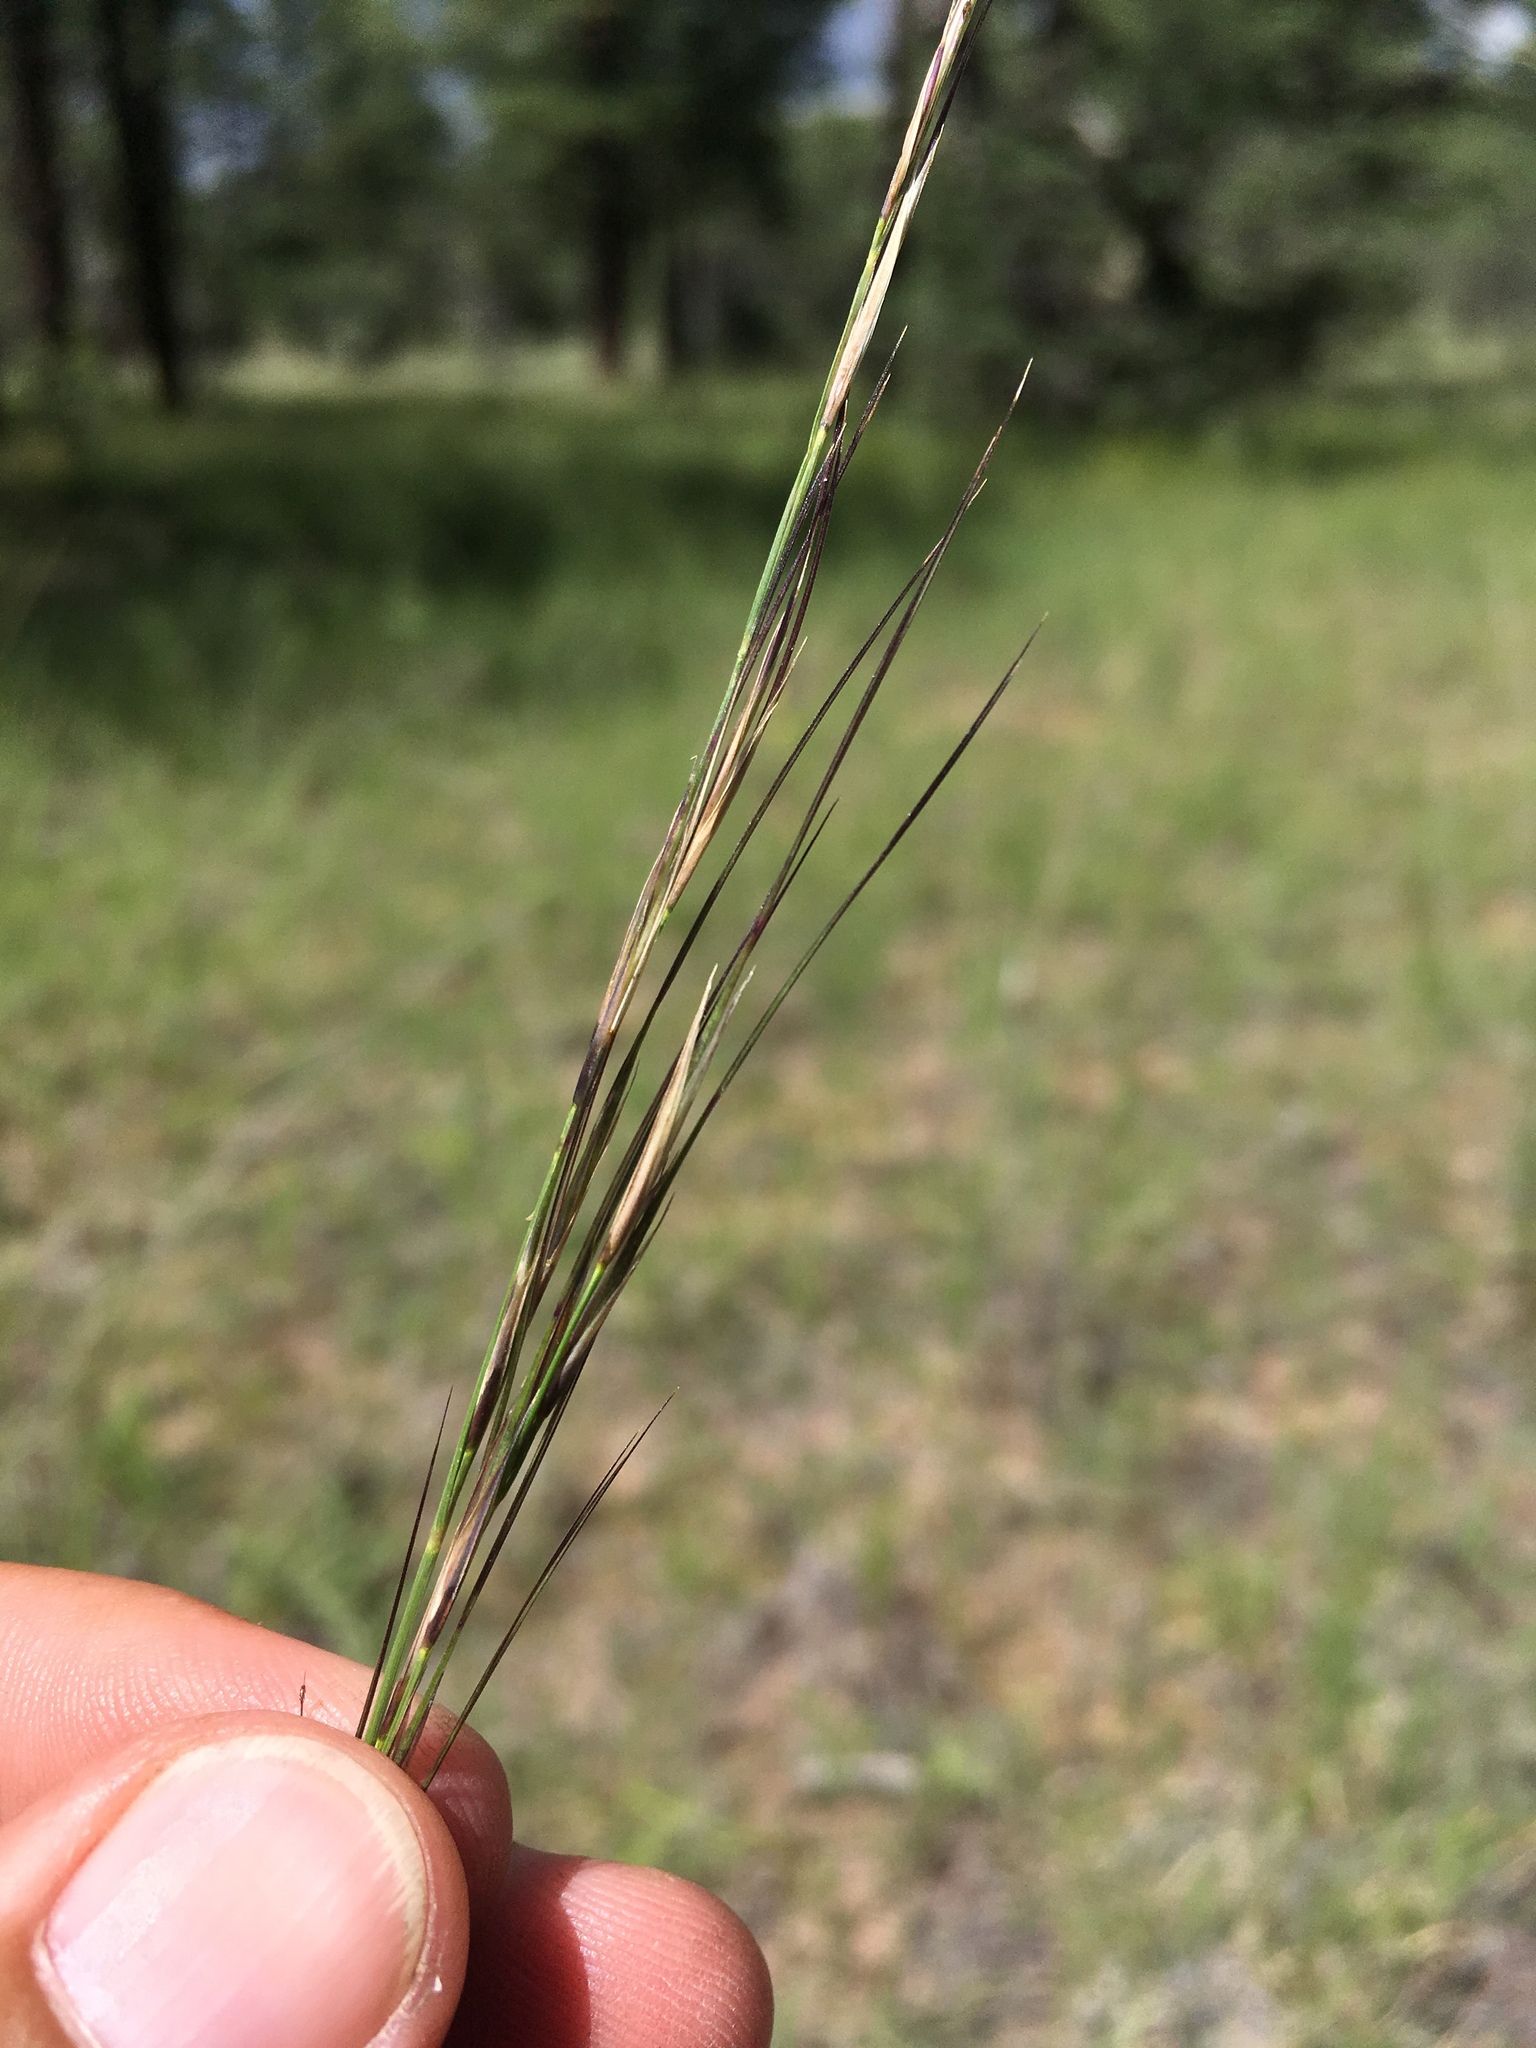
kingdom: Plantae
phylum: Tracheophyta
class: Liliopsida
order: Poales
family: Poaceae
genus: Aristida
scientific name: Aristida arizonica
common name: Arizona threeawn
